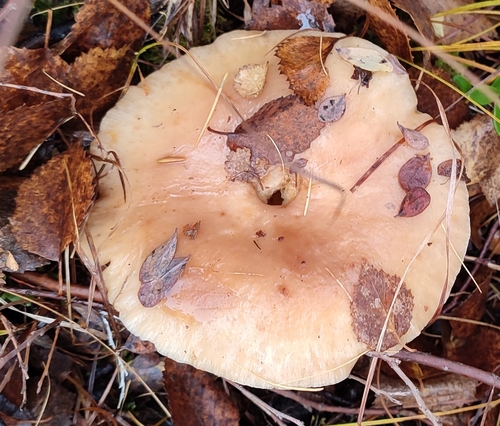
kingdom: Fungi
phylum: Basidiomycota
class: Agaricomycetes
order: Russulales
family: Russulaceae
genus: Lactarius
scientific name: Lactarius trivialis
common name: Tacked milkcap
